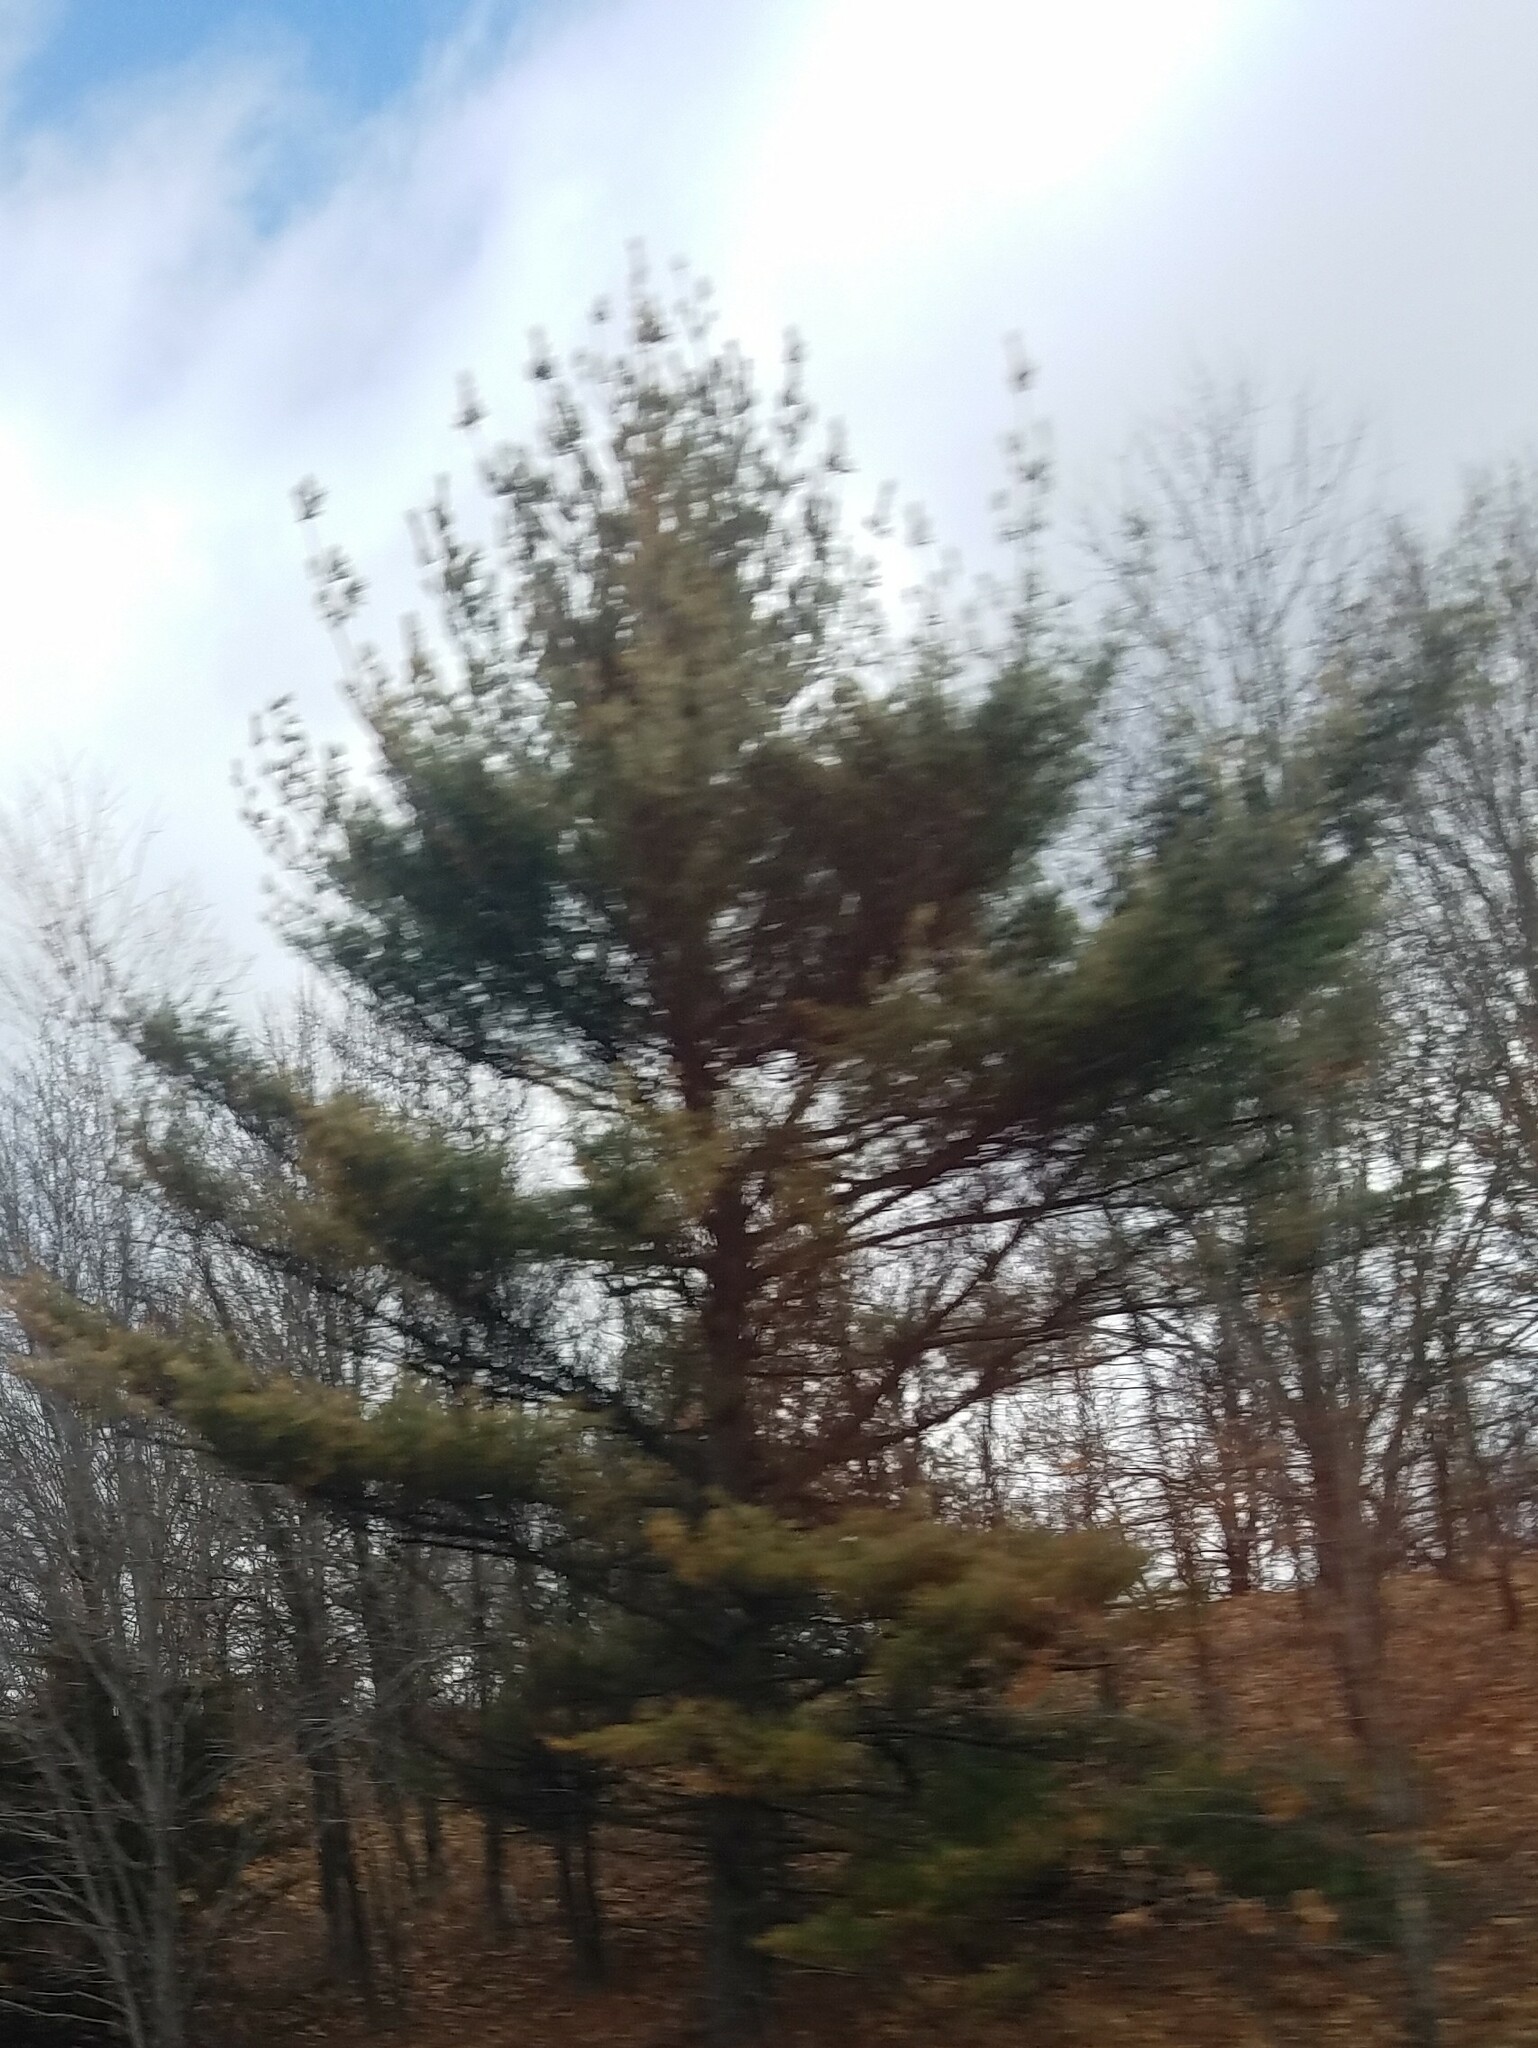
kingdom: Plantae
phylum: Tracheophyta
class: Pinopsida
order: Pinales
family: Pinaceae
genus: Pinus
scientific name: Pinus strobus
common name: Weymouth pine
